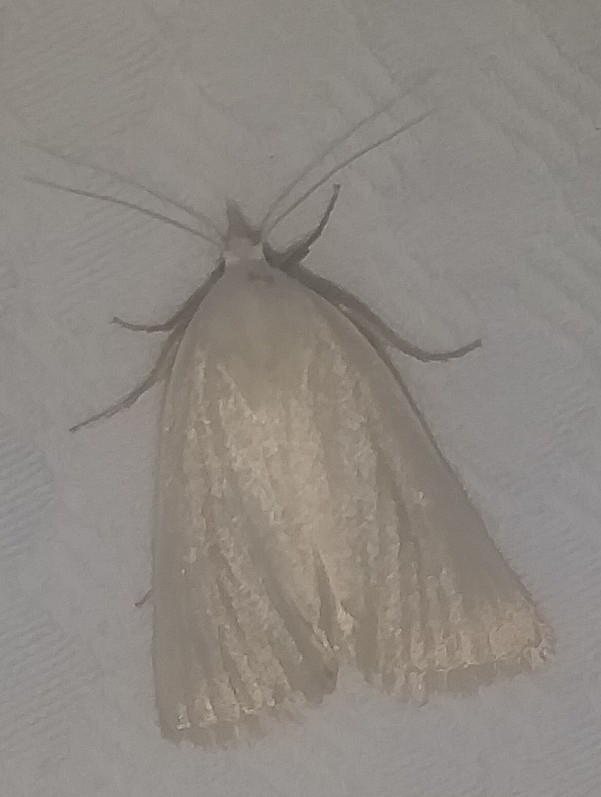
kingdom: Animalia
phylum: Arthropoda
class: Insecta
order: Lepidoptera
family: Erebidae
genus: Gabara
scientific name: Gabara subnivosella
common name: Snowy gabara
